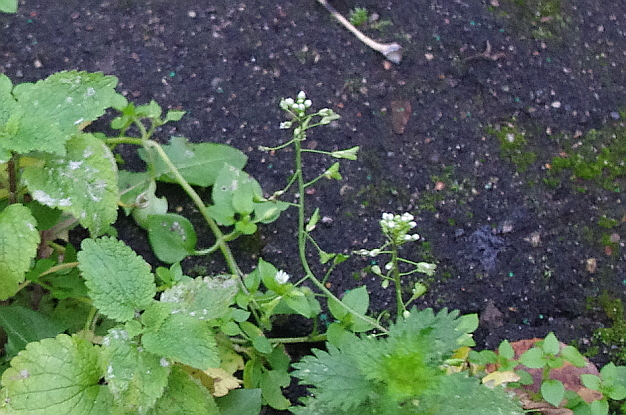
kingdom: Plantae
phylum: Tracheophyta
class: Magnoliopsida
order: Brassicales
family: Brassicaceae
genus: Capsella
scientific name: Capsella bursa-pastoris
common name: Shepherd's purse
